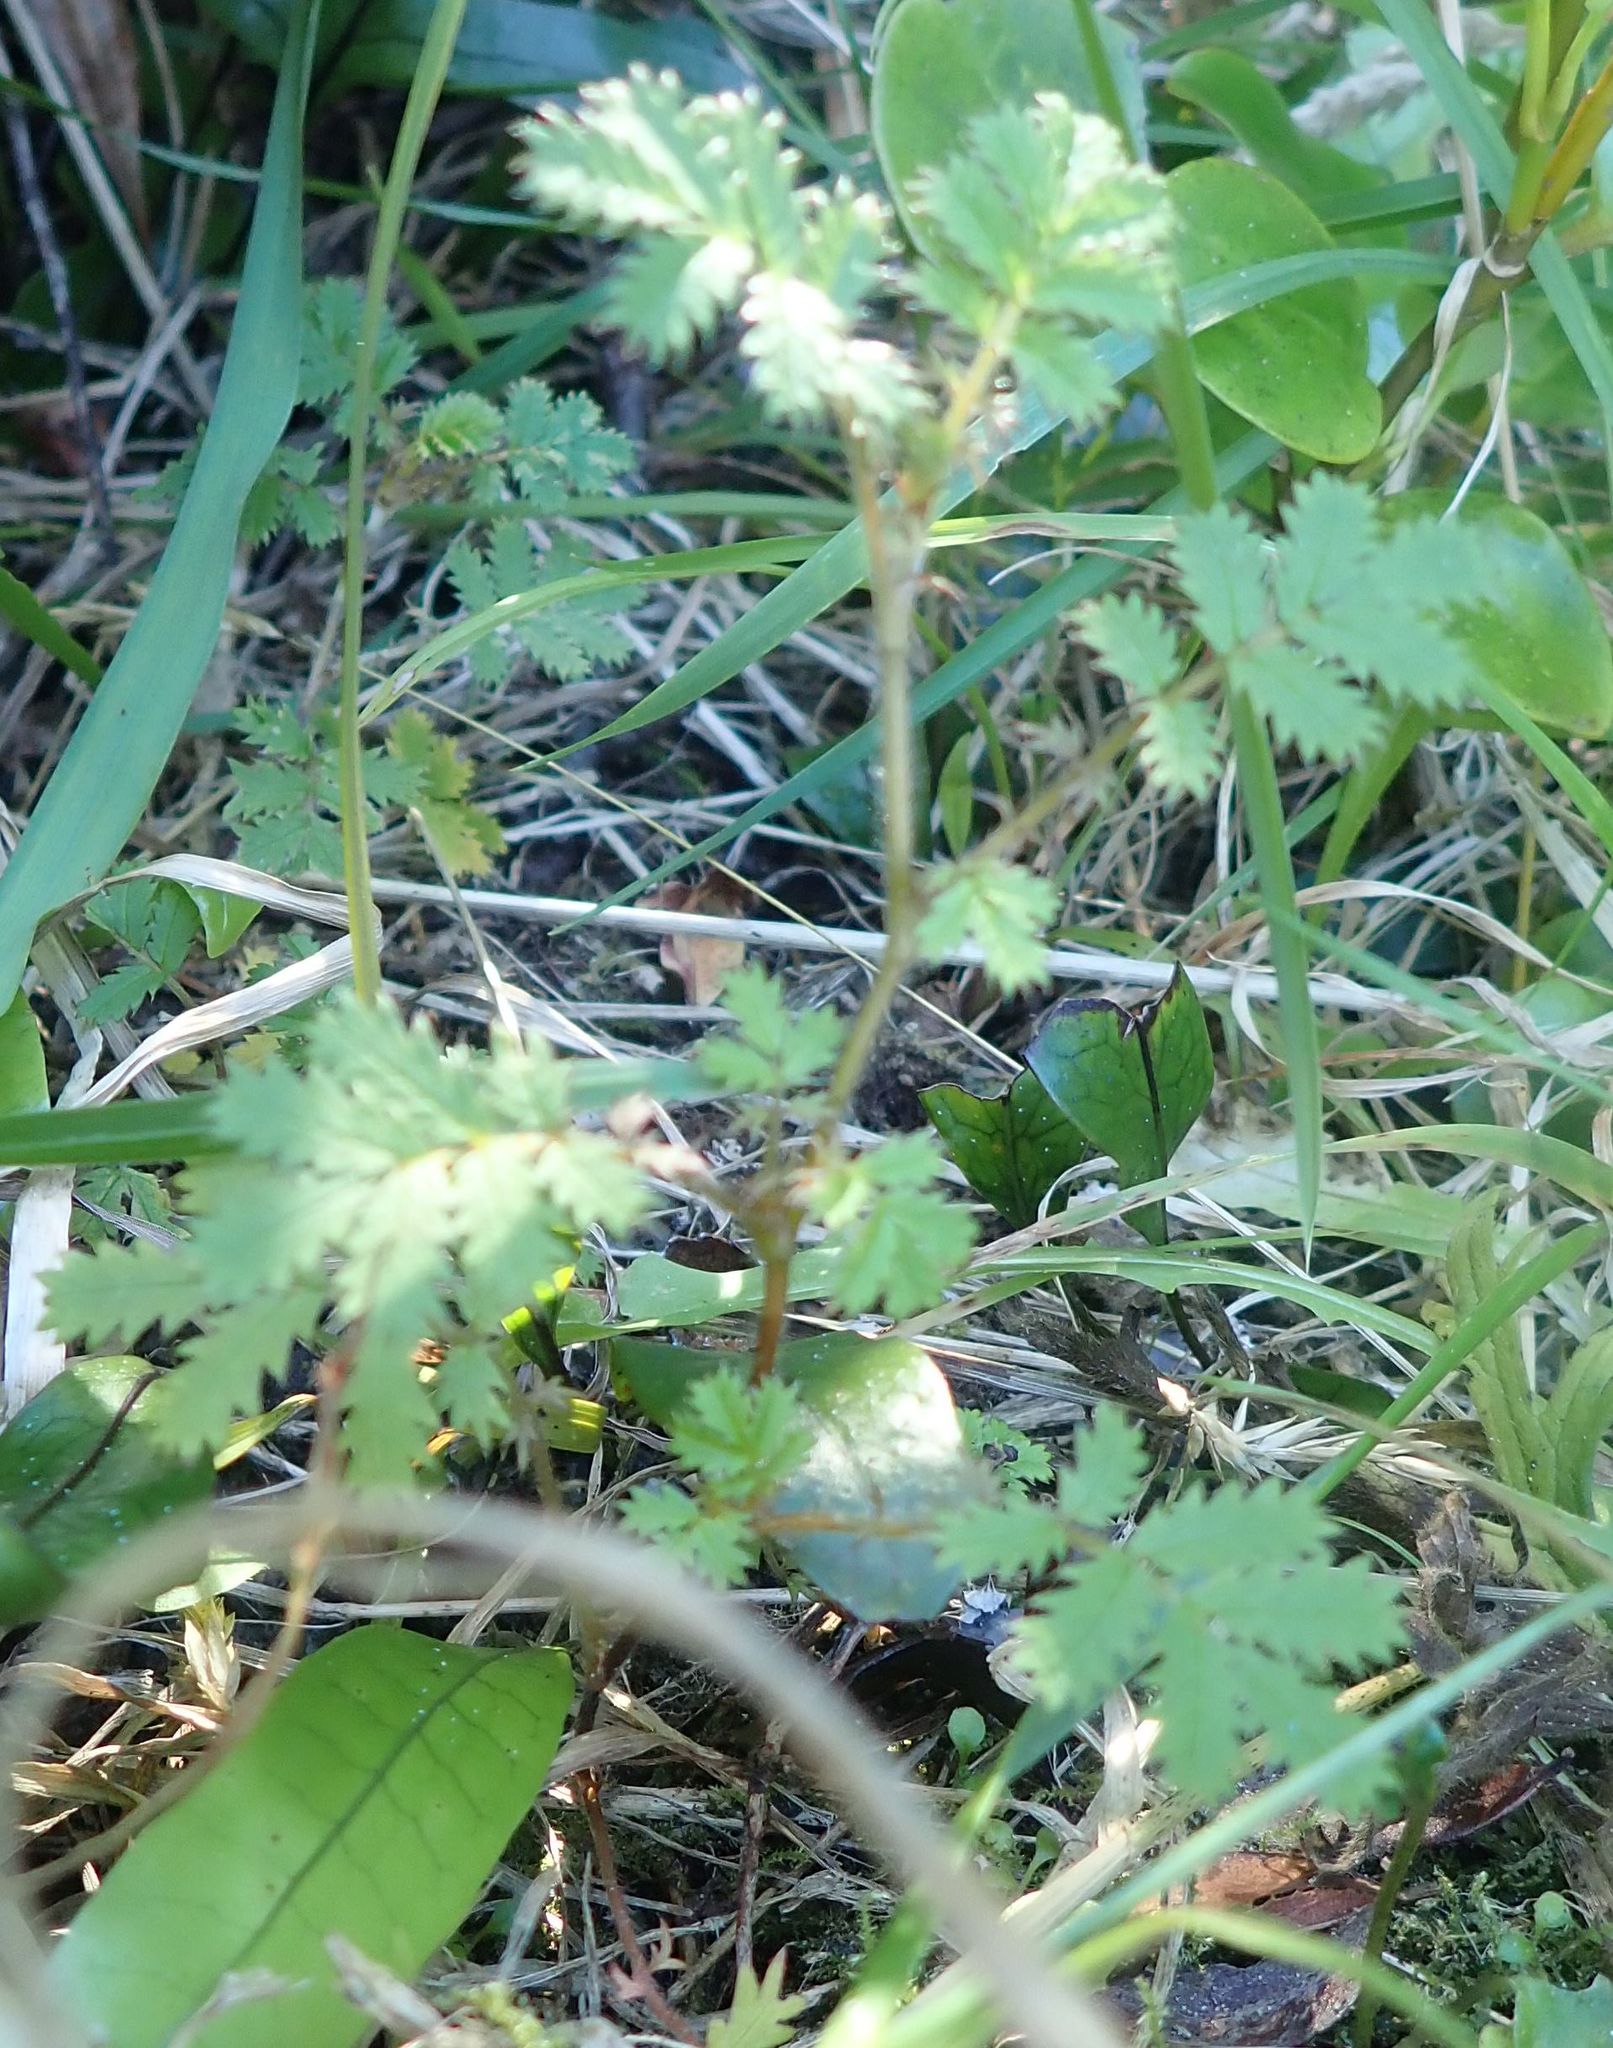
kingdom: Plantae
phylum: Tracheophyta
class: Magnoliopsida
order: Rosales
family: Rosaceae
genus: Acaena
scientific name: Acaena anserinifolia
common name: Bronze pirri-pirri-bur
